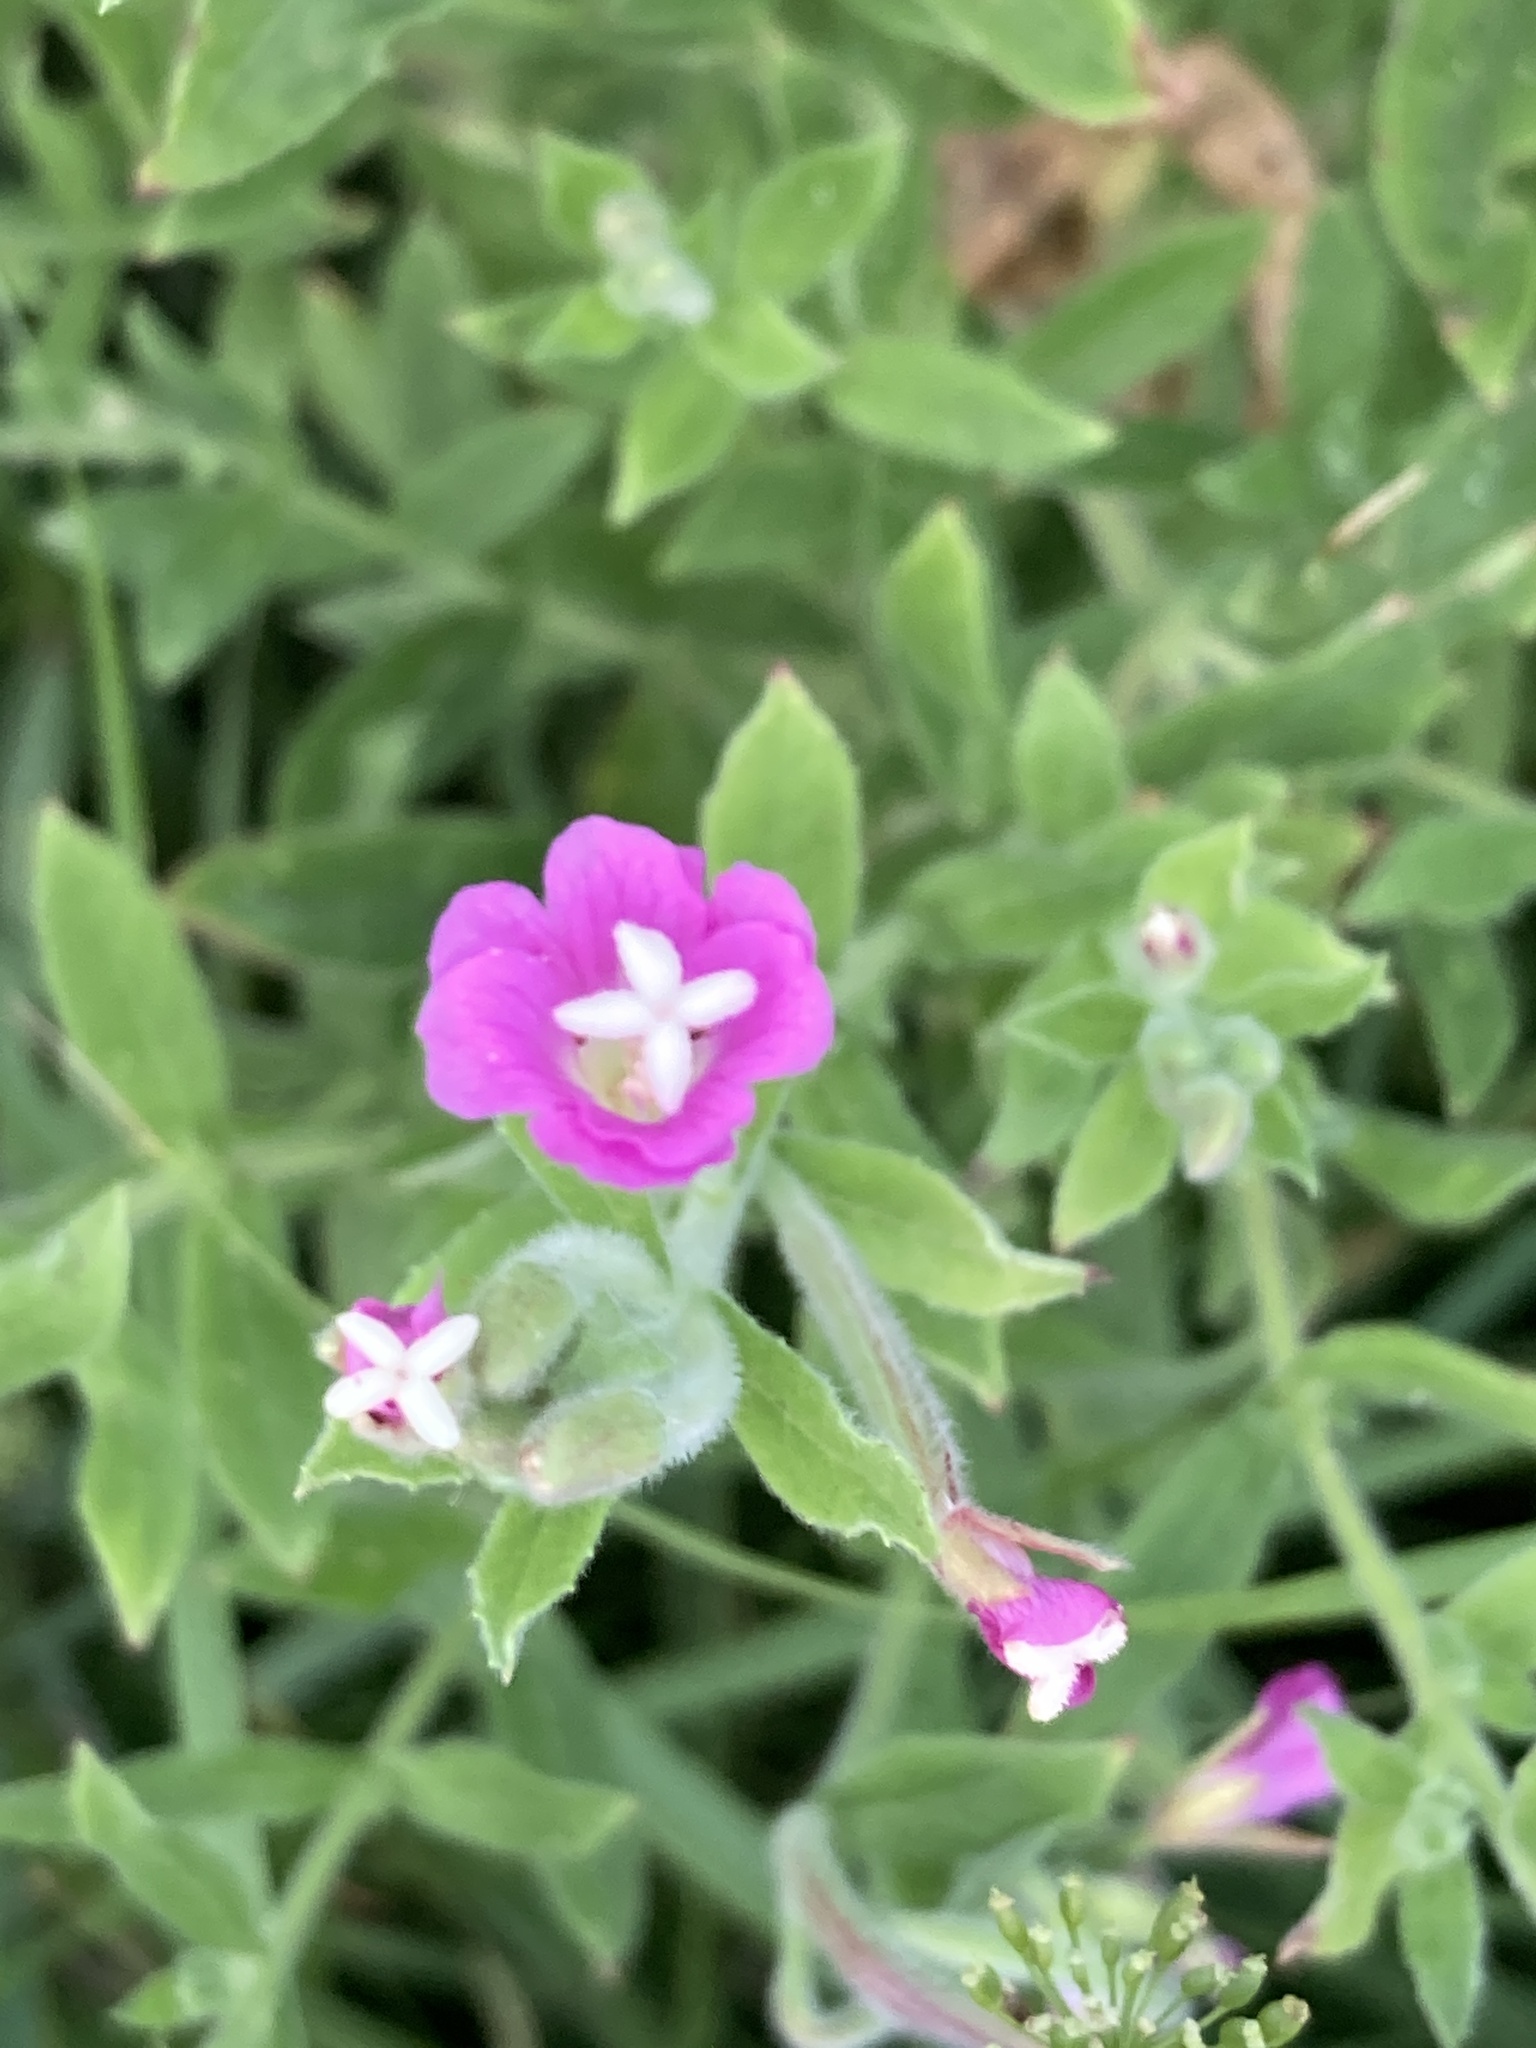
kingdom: Plantae
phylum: Tracheophyta
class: Magnoliopsida
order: Myrtales
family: Onagraceae
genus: Epilobium
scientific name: Epilobium hirsutum
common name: Great willowherb
